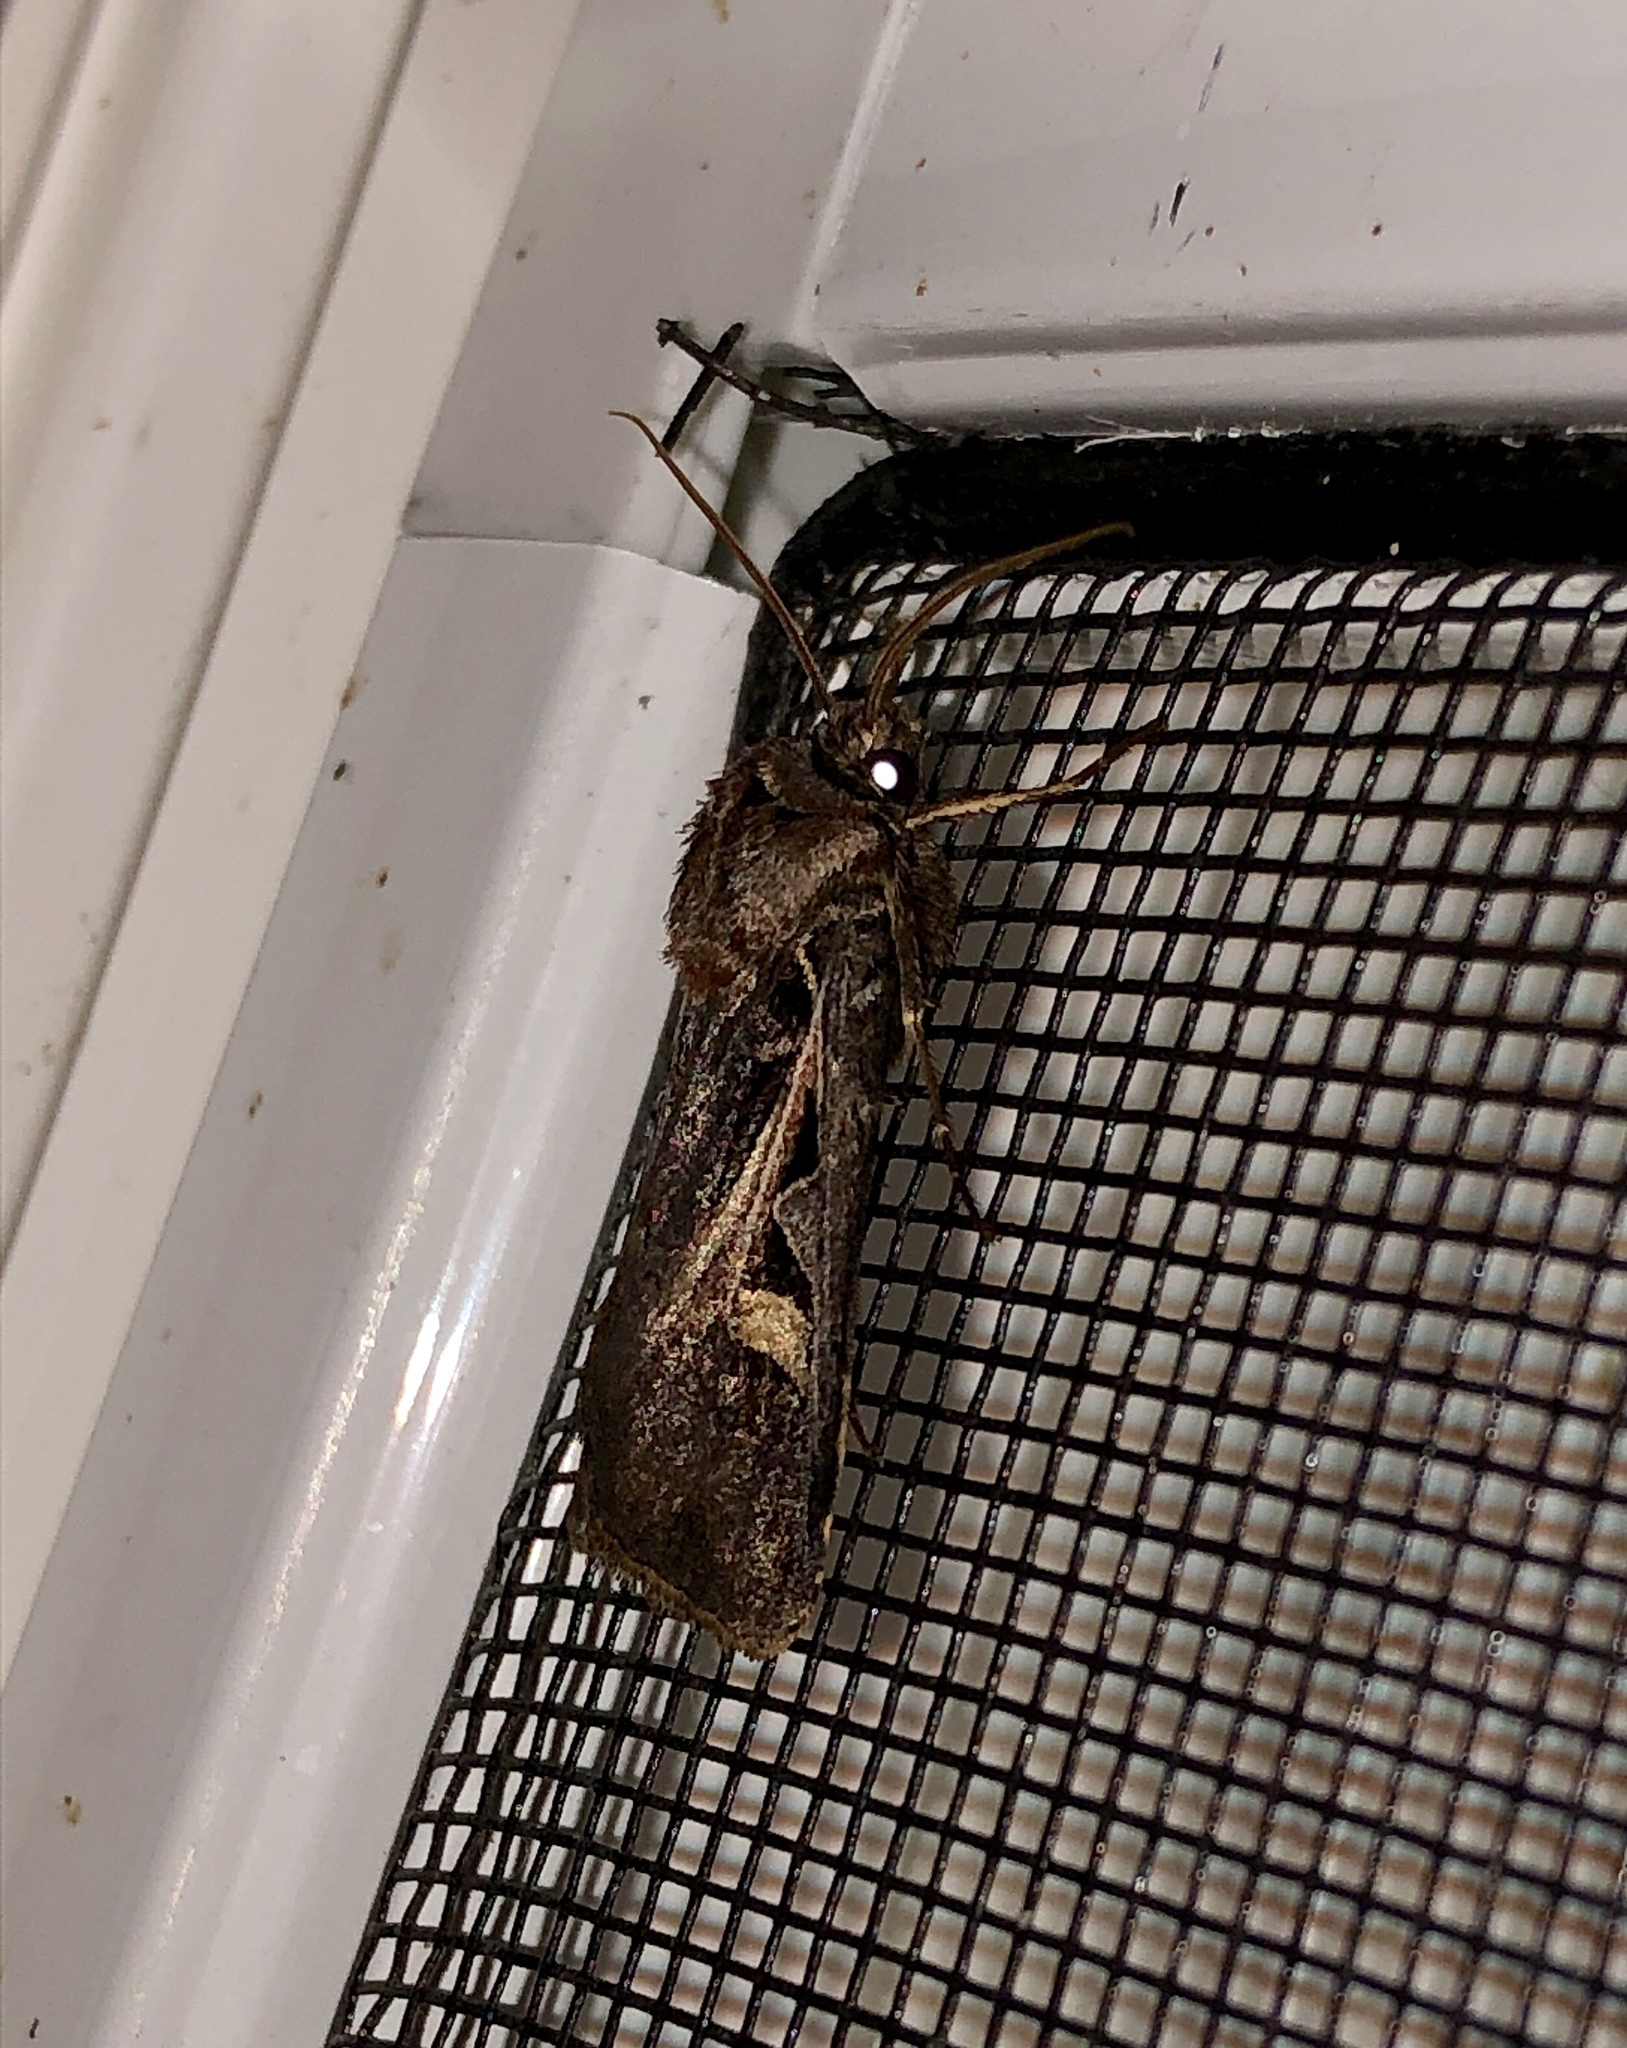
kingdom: Animalia
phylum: Arthropoda
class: Insecta
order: Lepidoptera
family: Noctuidae
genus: Feltia
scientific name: Feltia herilis
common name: Master's dart
